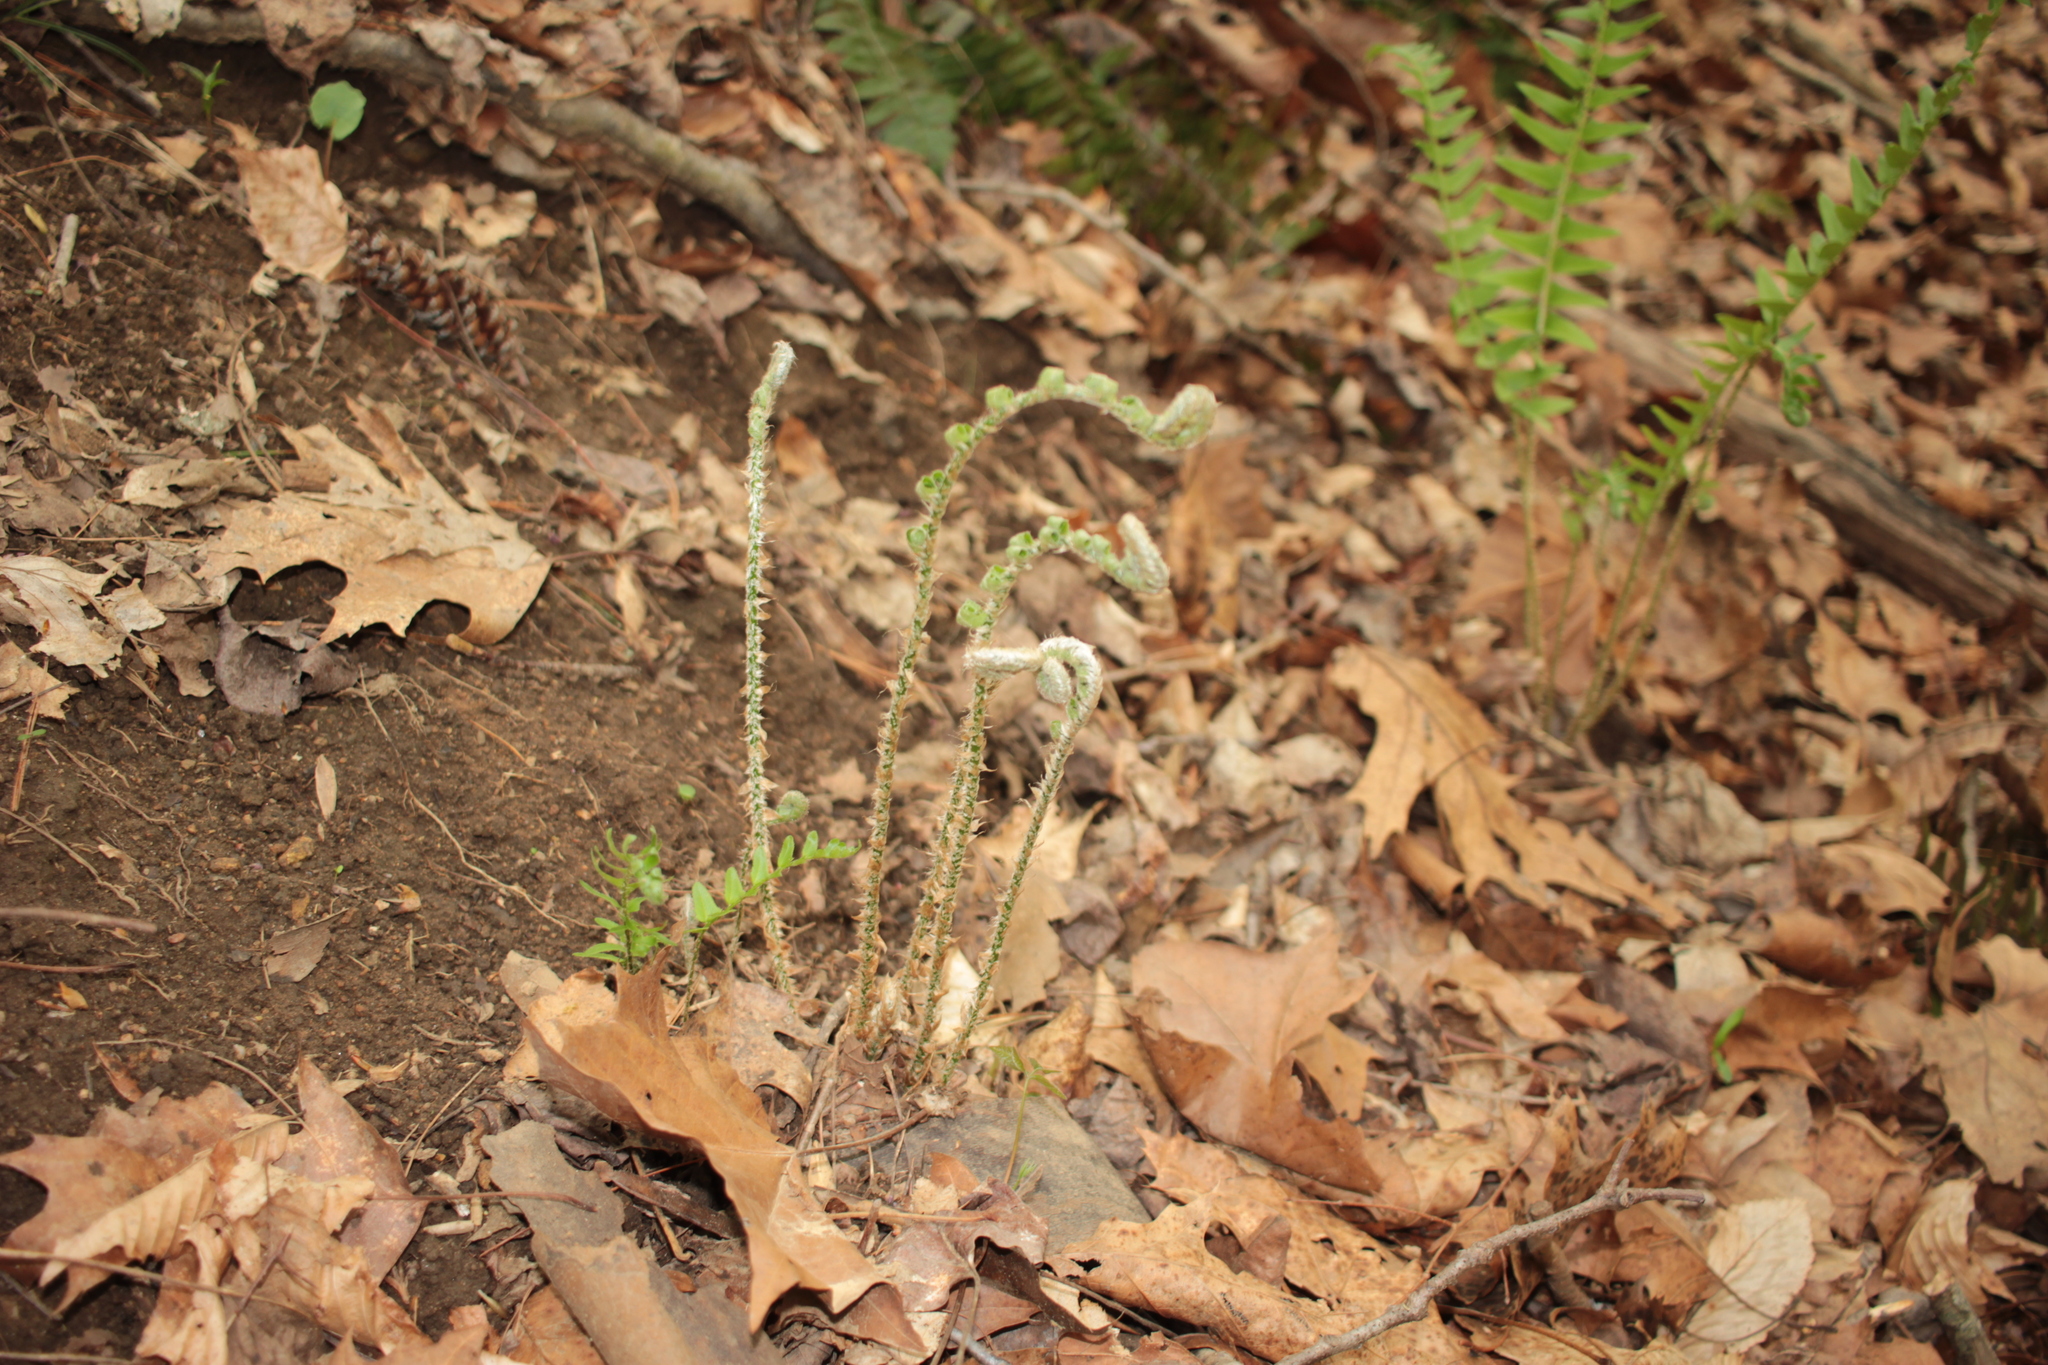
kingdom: Plantae
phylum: Tracheophyta
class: Polypodiopsida
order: Polypodiales
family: Dryopteridaceae
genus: Polystichum
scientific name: Polystichum acrostichoides
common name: Christmas fern
